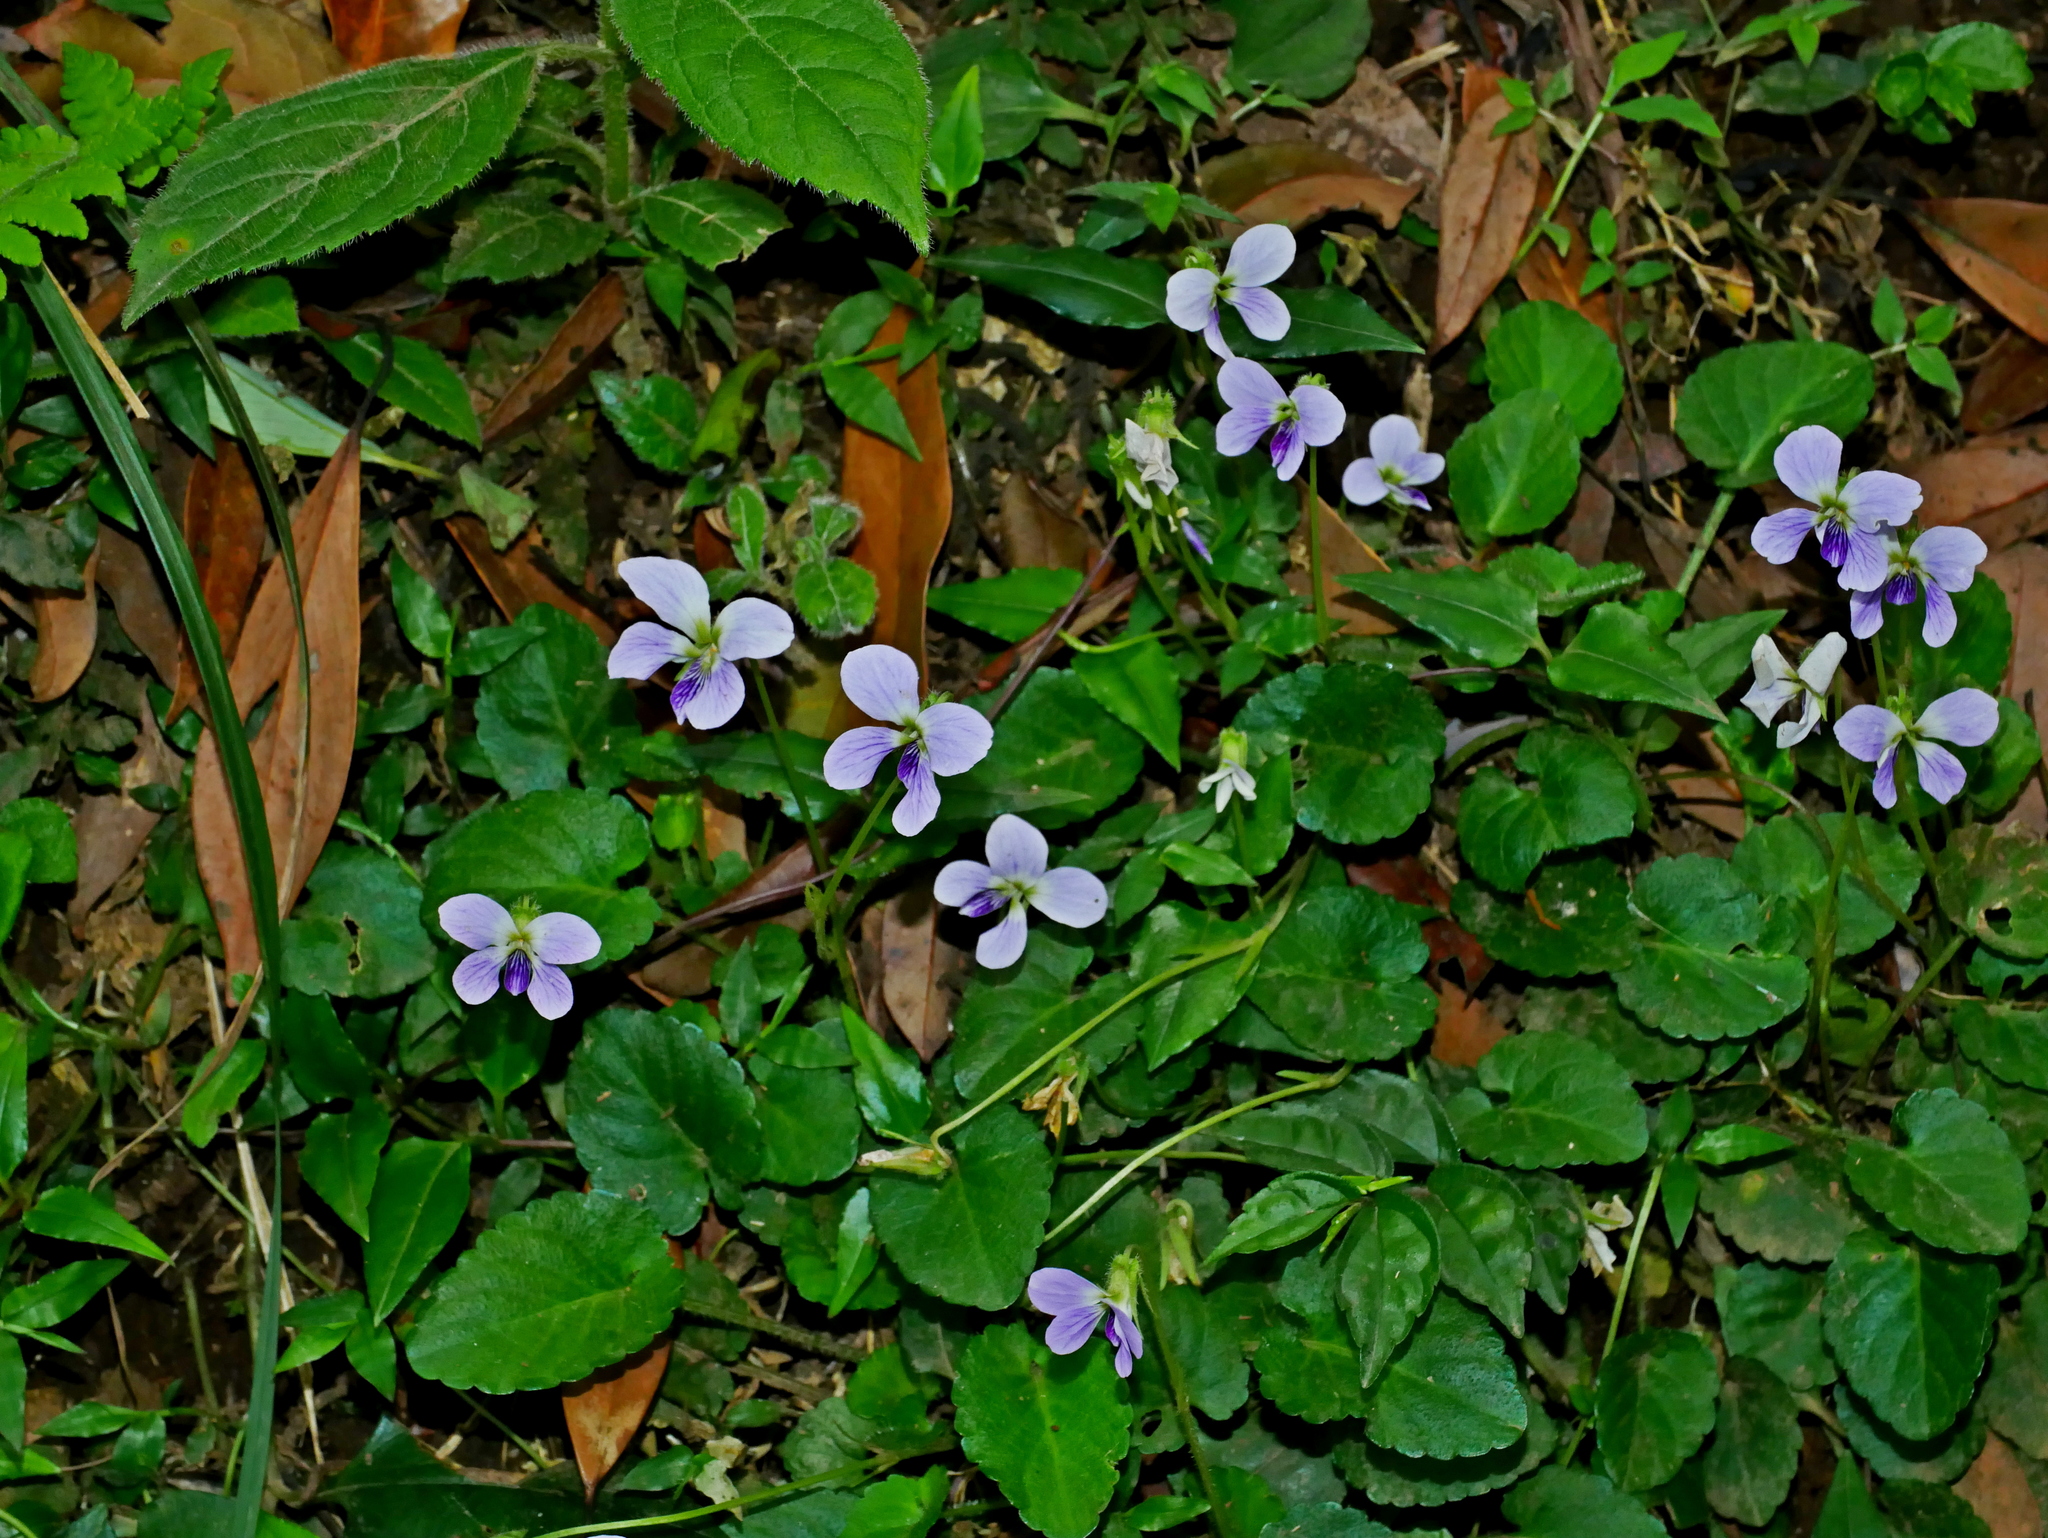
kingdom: Plantae
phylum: Tracheophyta
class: Magnoliopsida
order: Malpighiales
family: Violaceae
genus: Viola
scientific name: Viola nagasawae
